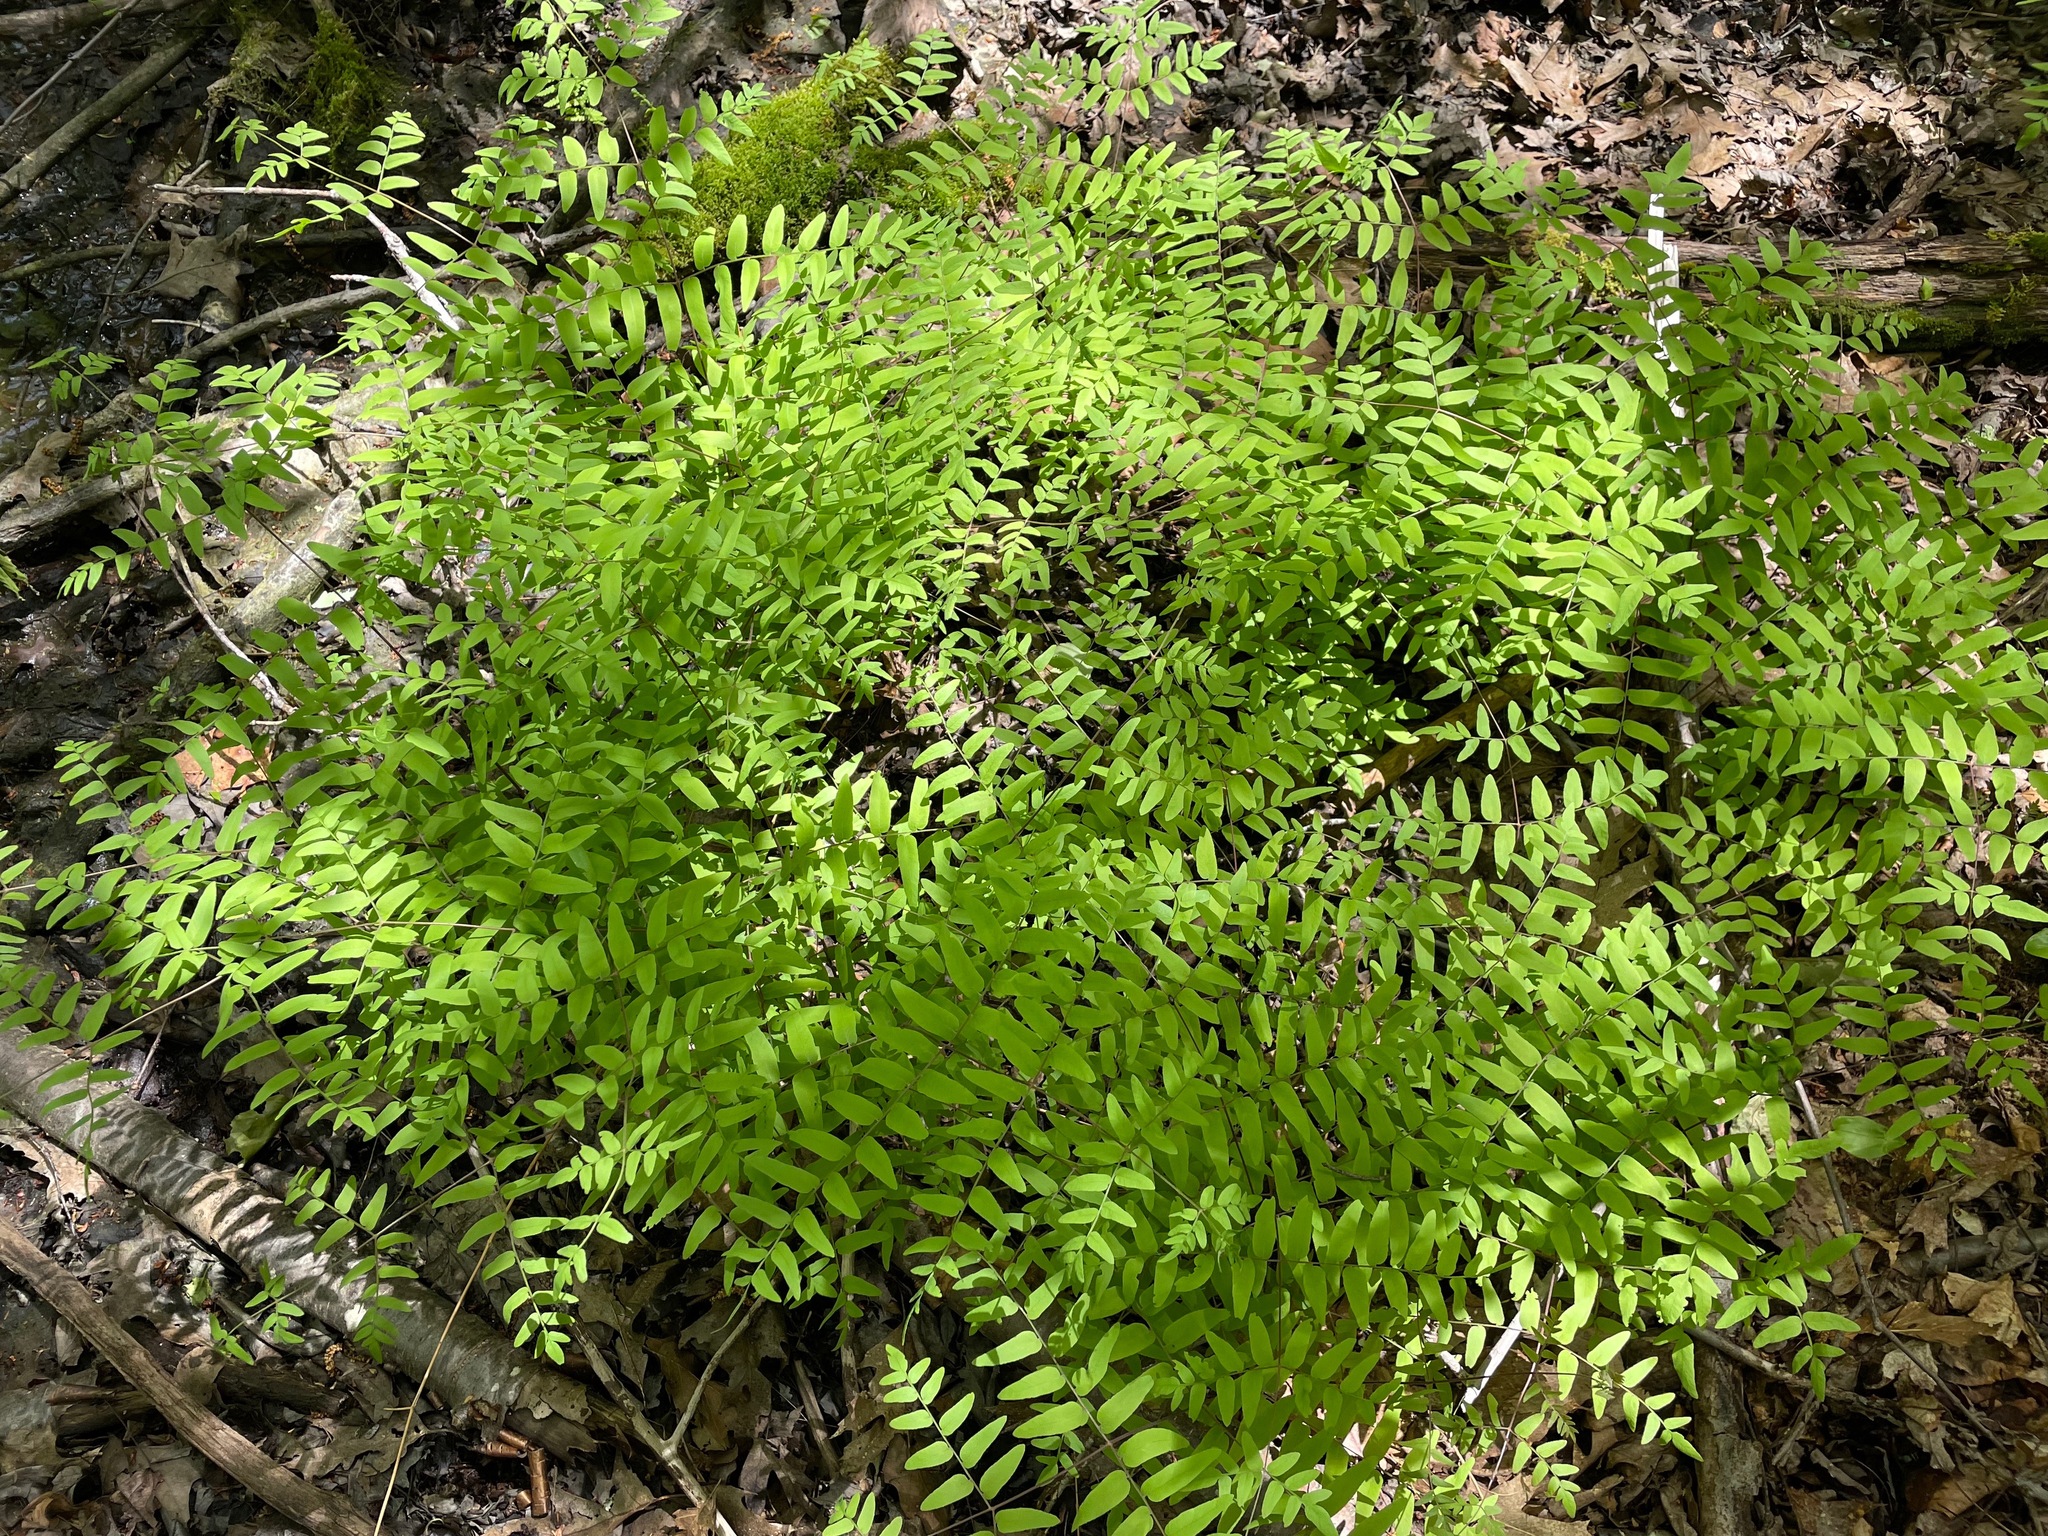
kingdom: Plantae
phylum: Tracheophyta
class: Polypodiopsida
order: Osmundales
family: Osmundaceae
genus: Osmunda
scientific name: Osmunda spectabilis
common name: American royal fern
